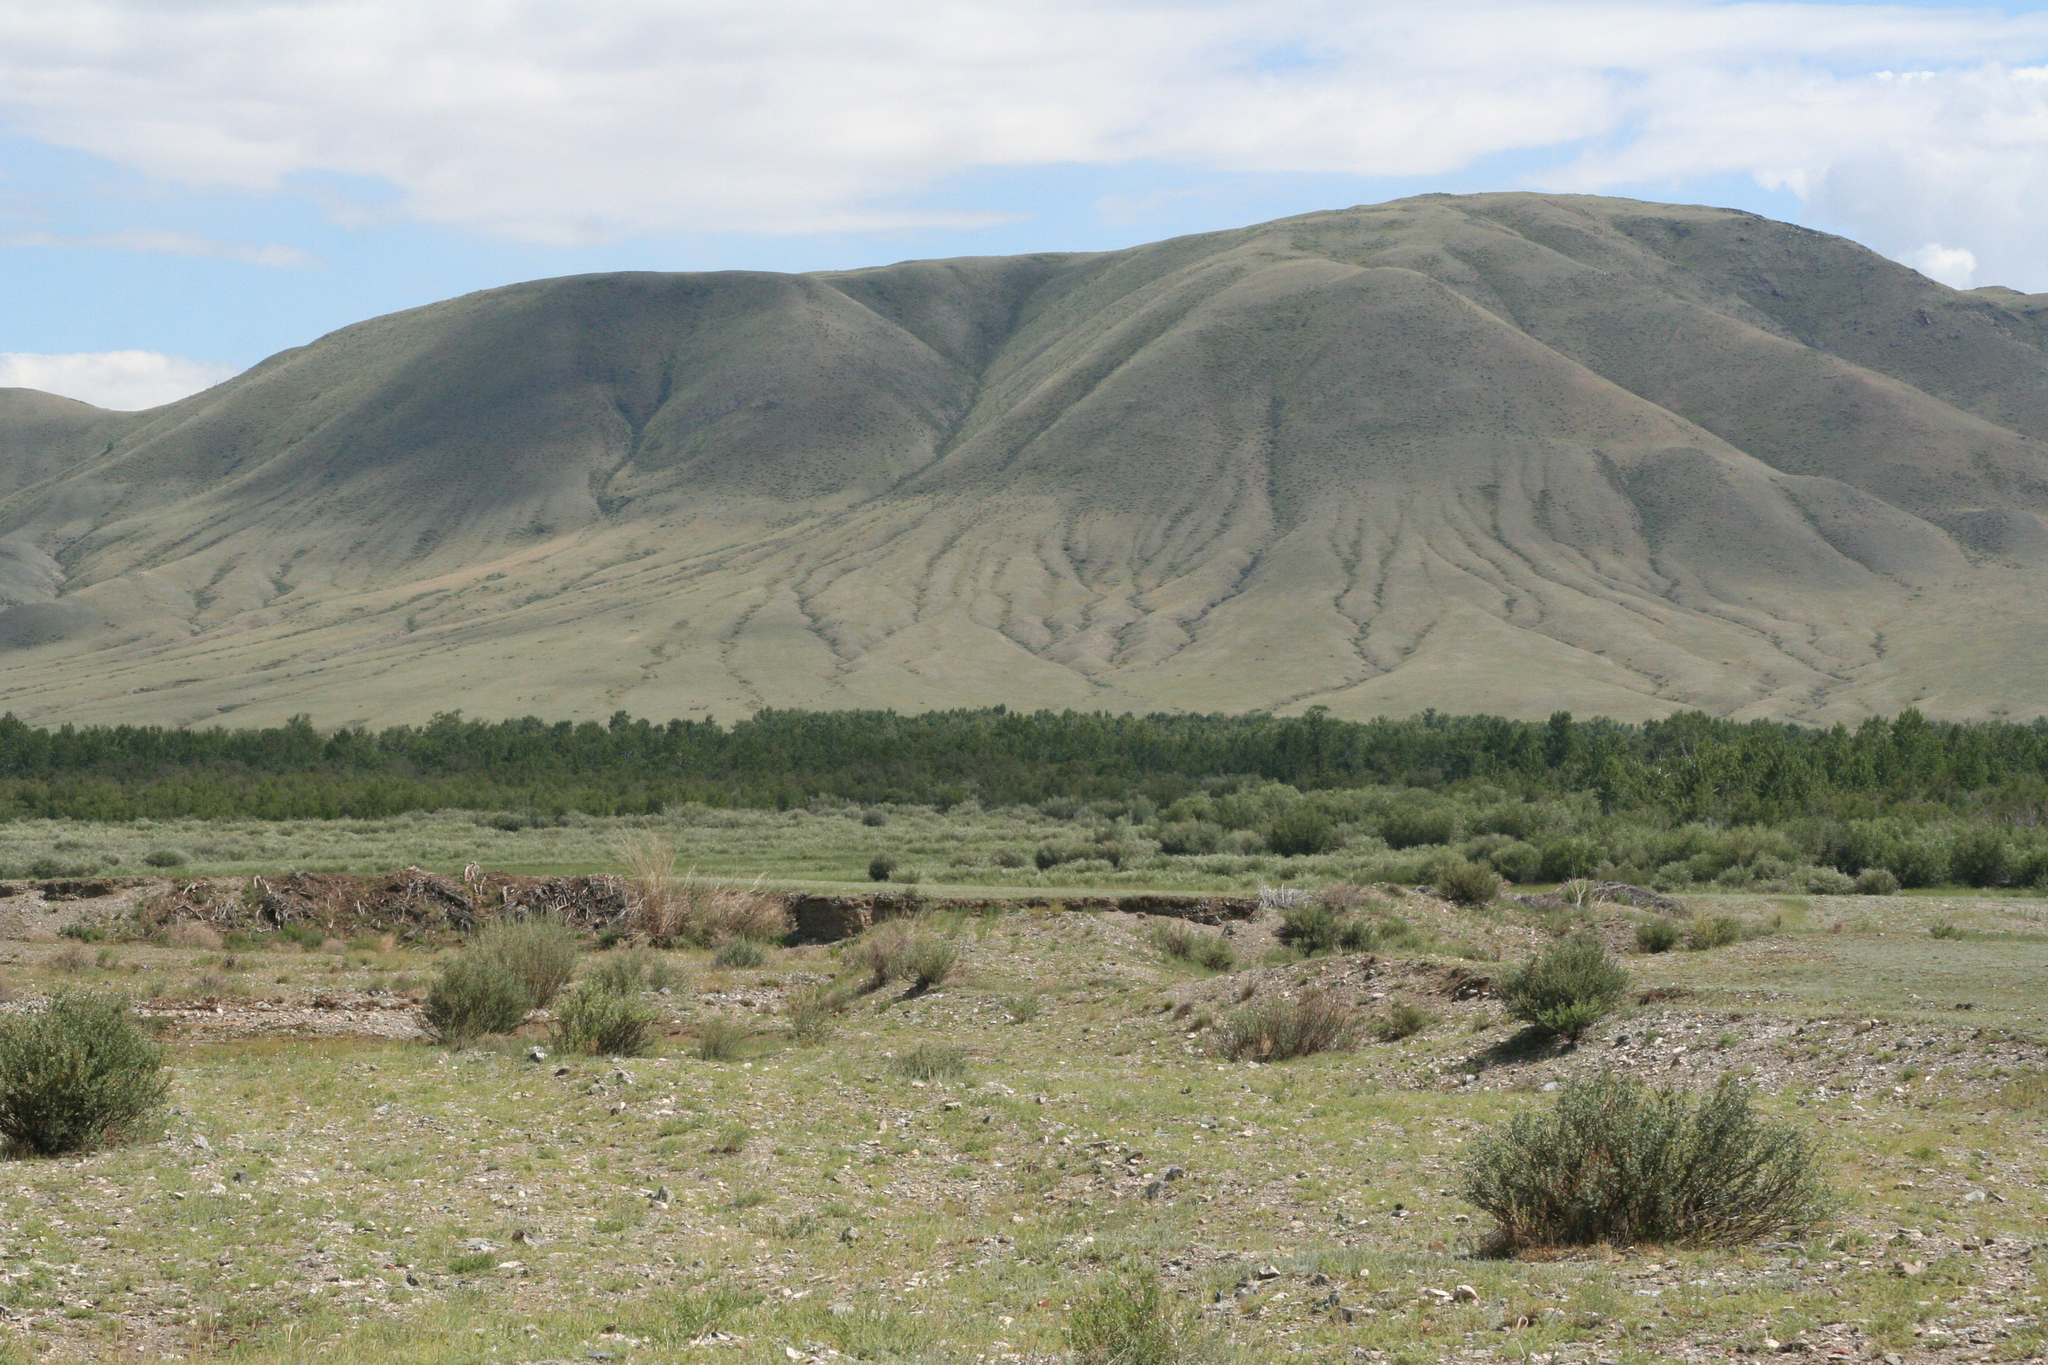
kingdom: Plantae
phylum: Tracheophyta
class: Magnoliopsida
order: Fabales
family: Fabaceae
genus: Caragana
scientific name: Caragana pygmaea
